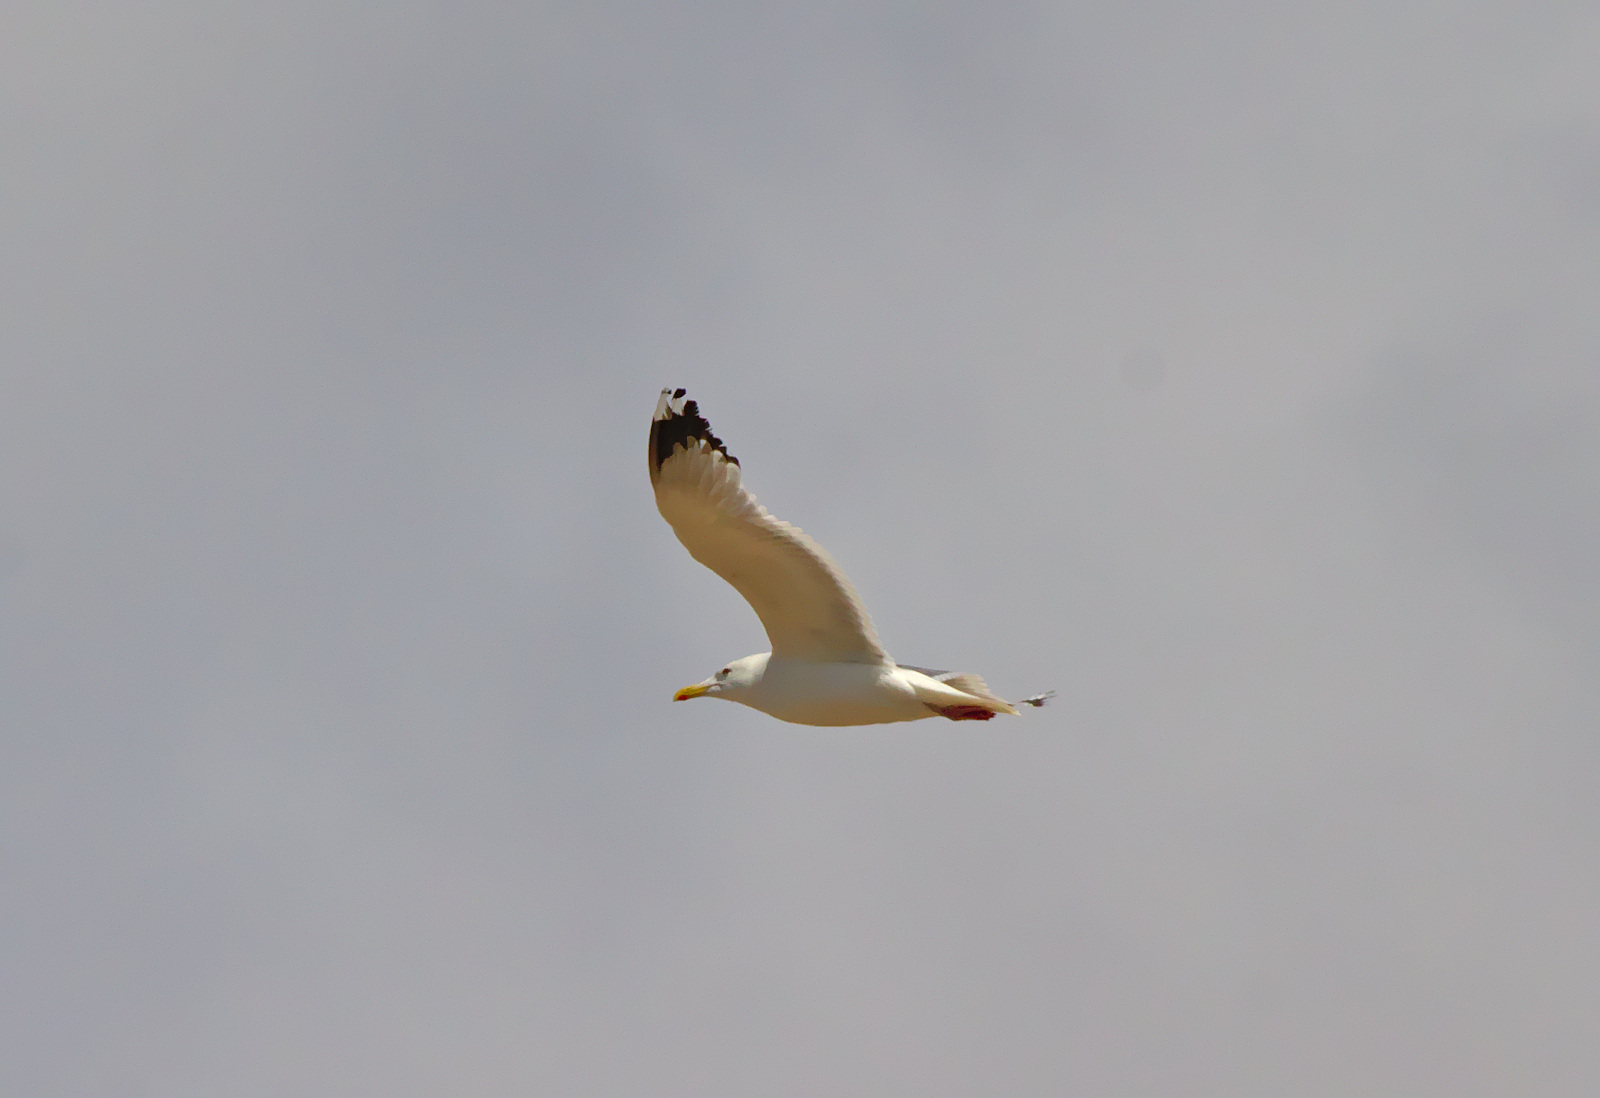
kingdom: Animalia
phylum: Chordata
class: Aves
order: Charadriiformes
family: Laridae
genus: Larus
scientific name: Larus vegae
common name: Vega gull
